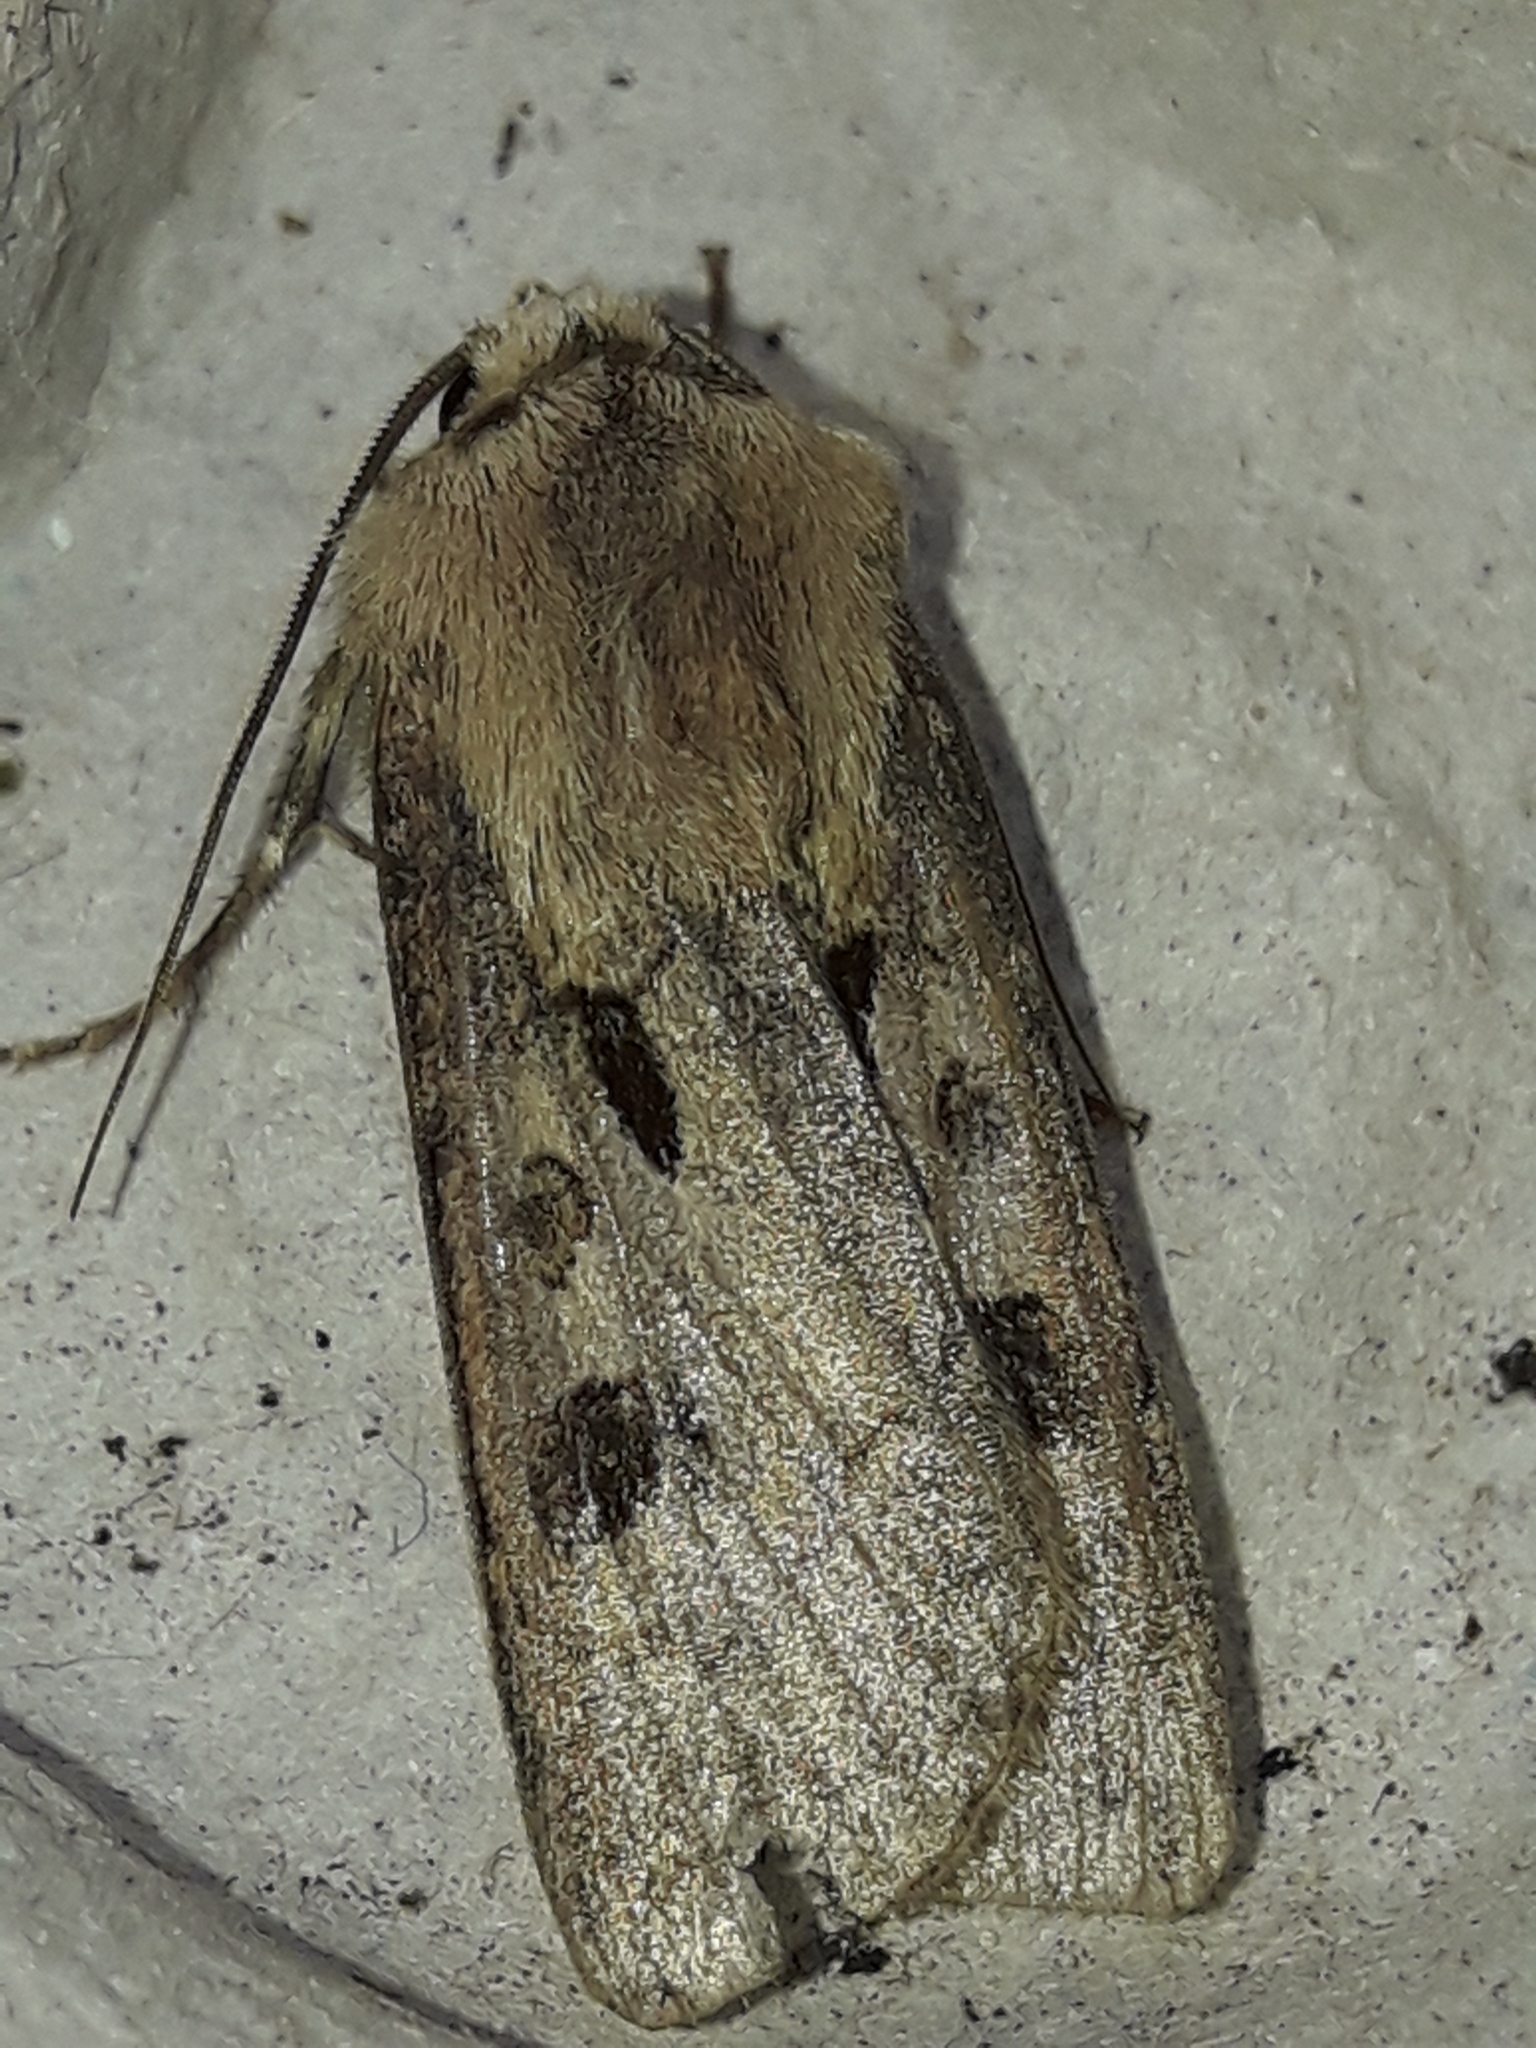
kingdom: Animalia
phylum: Arthropoda
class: Insecta
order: Lepidoptera
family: Noctuidae
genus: Agrotis
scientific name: Agrotis exclamationis
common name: Heart and dart
